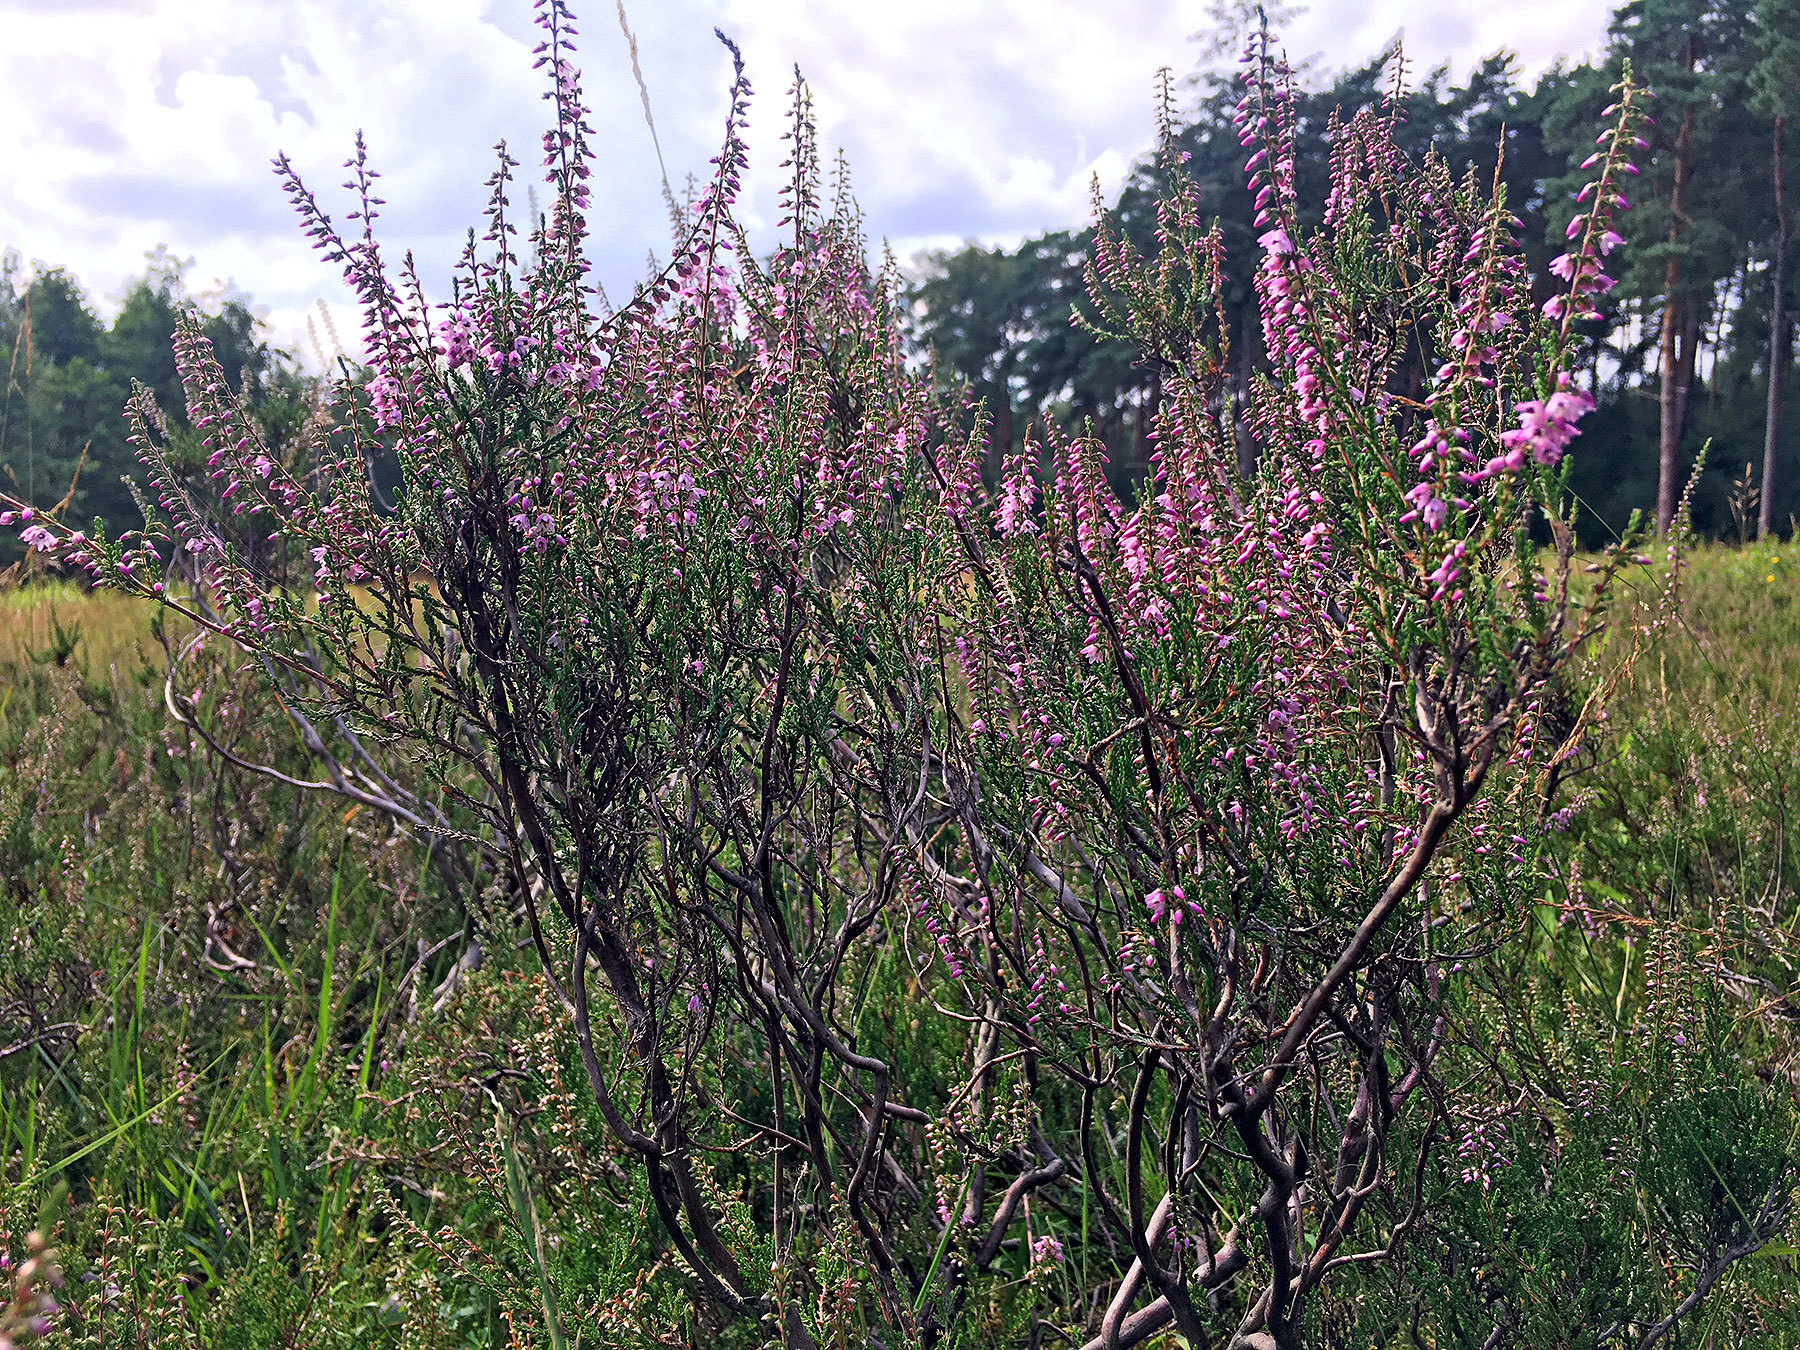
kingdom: Plantae
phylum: Tracheophyta
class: Magnoliopsida
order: Ericales
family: Ericaceae
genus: Calluna
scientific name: Calluna vulgaris
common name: Heather
